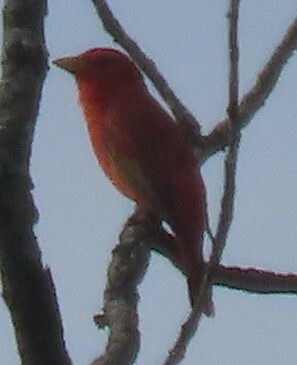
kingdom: Animalia
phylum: Chordata
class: Aves
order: Passeriformes
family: Cardinalidae
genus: Piranga
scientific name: Piranga rubra
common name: Summer tanager
